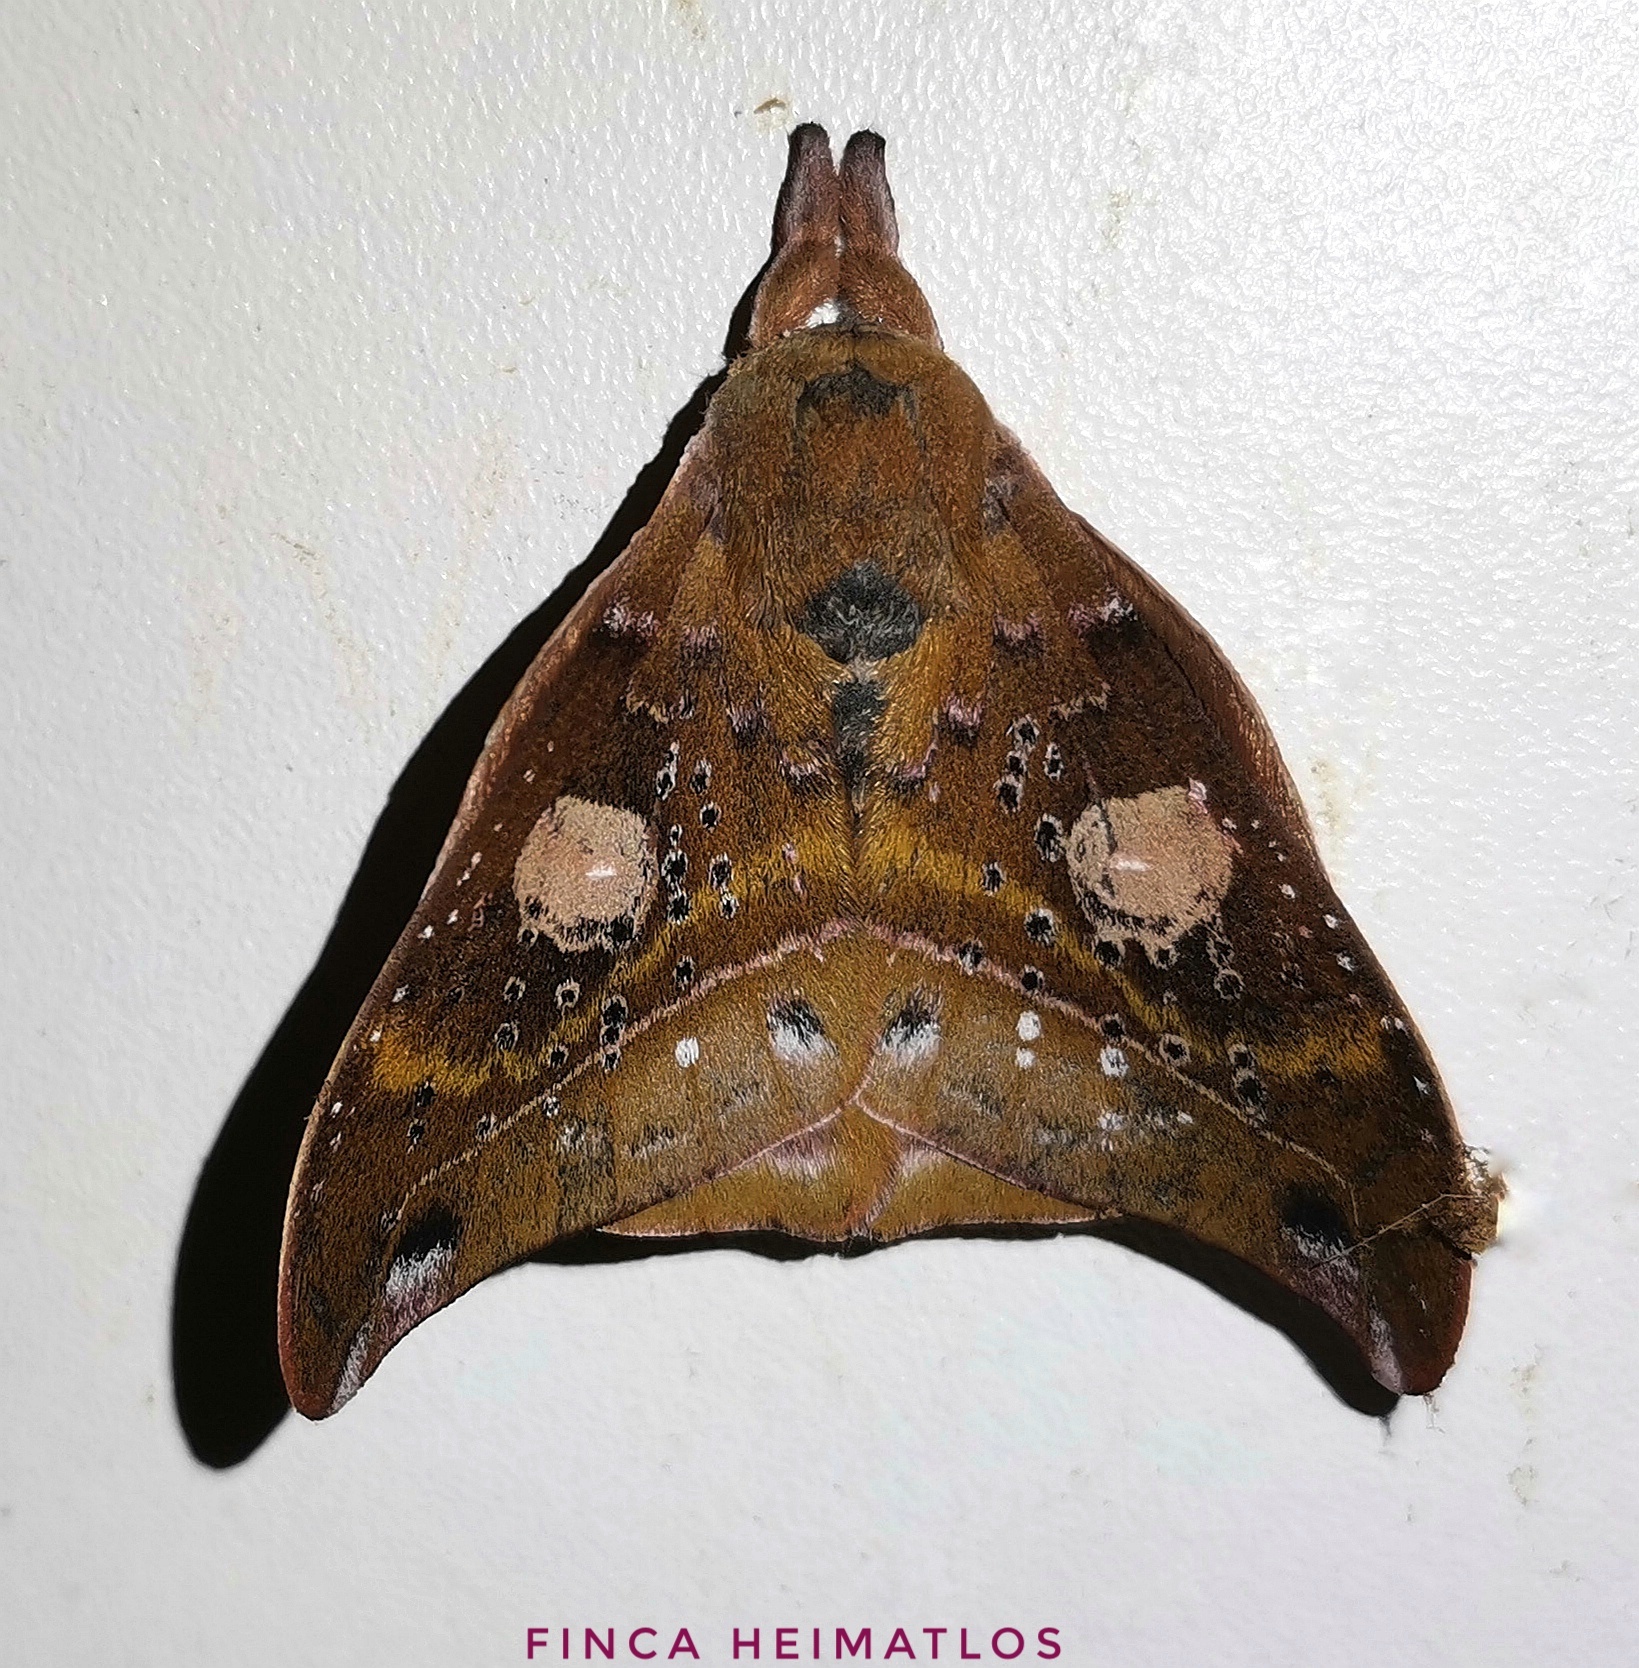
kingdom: Animalia
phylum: Arthropoda
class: Insecta
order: Lepidoptera
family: Saturniidae
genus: Automerina
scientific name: Automerina auletes
